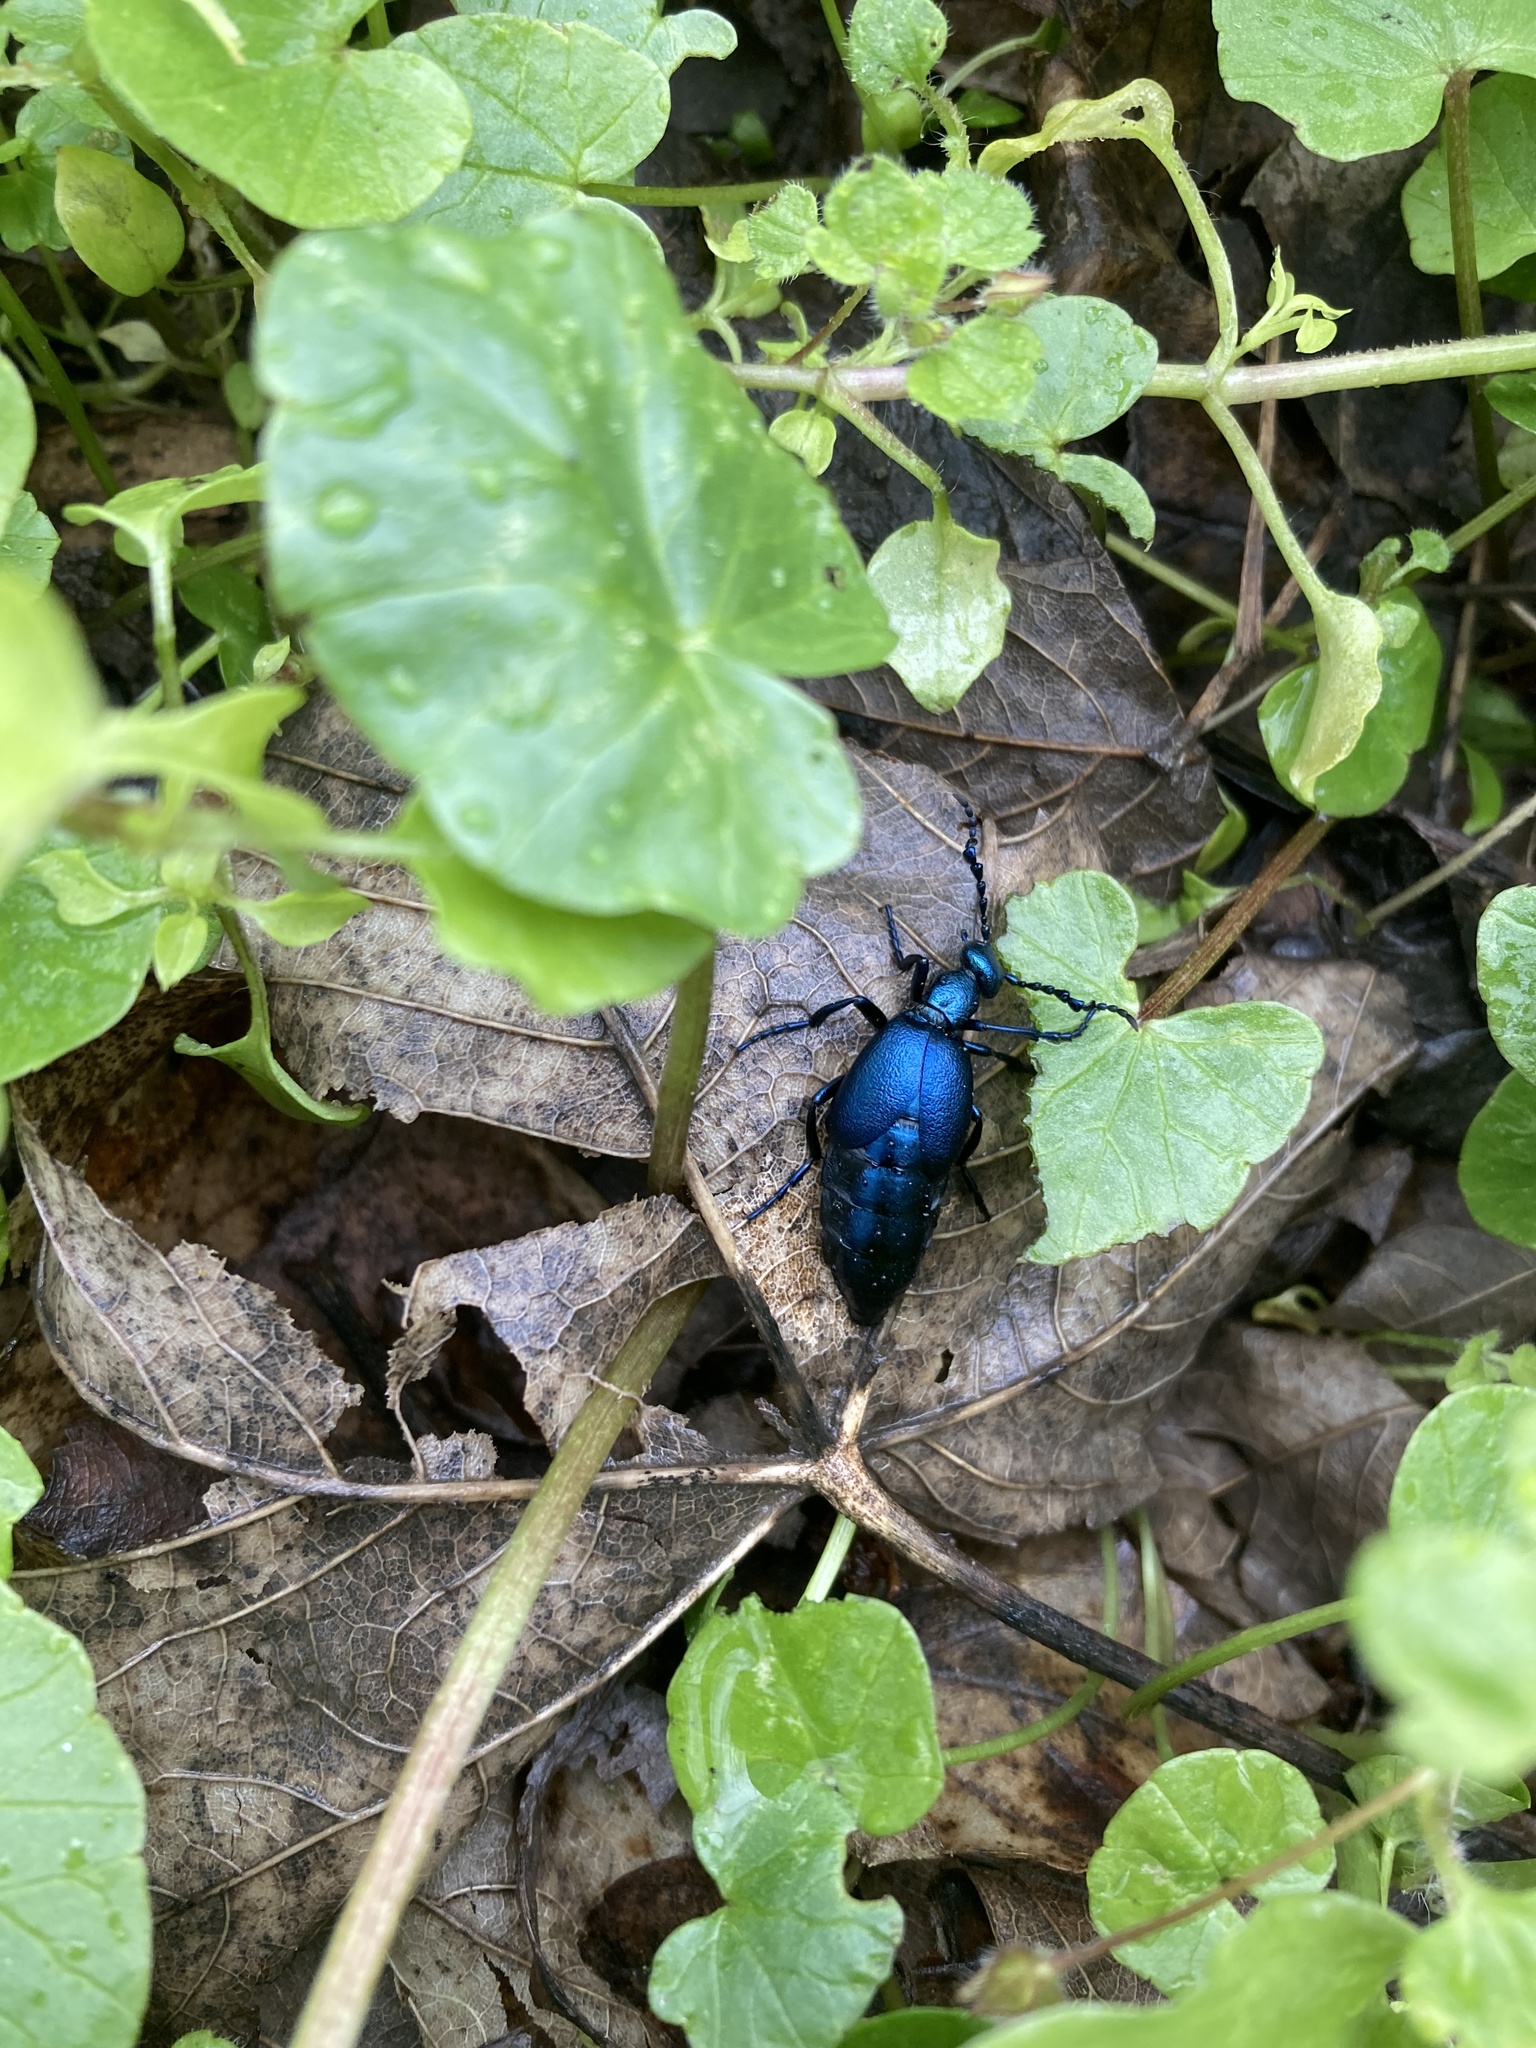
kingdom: Animalia
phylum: Arthropoda
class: Insecta
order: Coleoptera
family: Meloidae
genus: Meloe
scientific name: Meloe violaceus
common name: Violet oil-beetle
